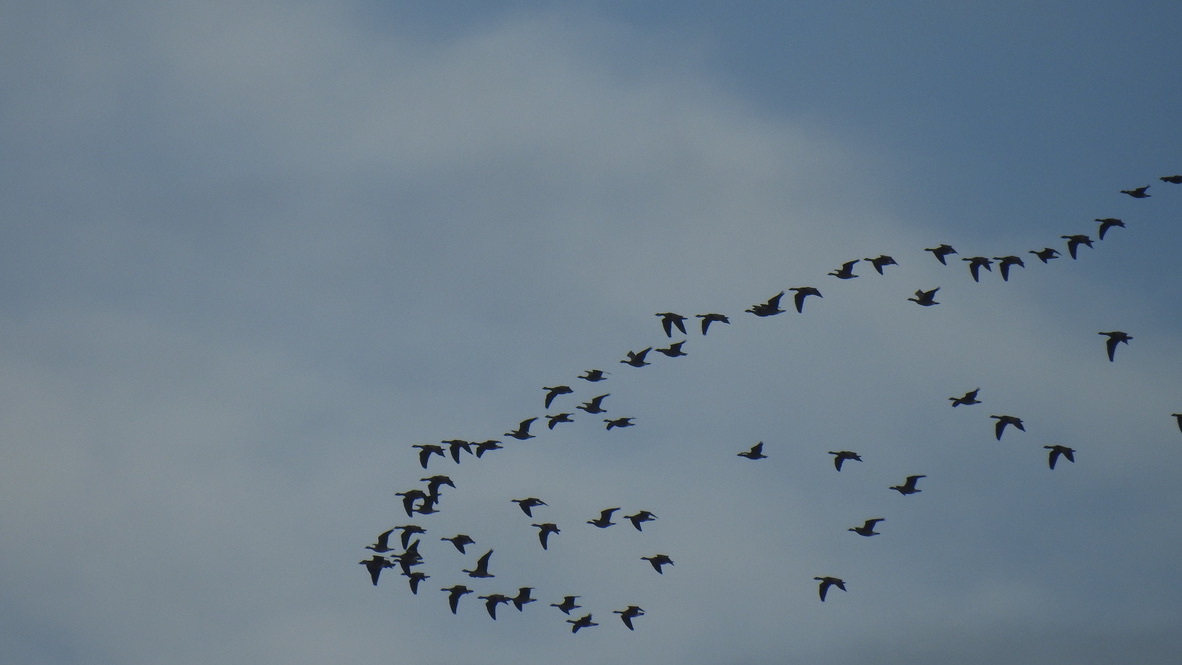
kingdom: Animalia
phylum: Chordata
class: Aves
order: Anseriformes
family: Anatidae
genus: Branta
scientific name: Branta hutchinsii
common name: Cackling goose
